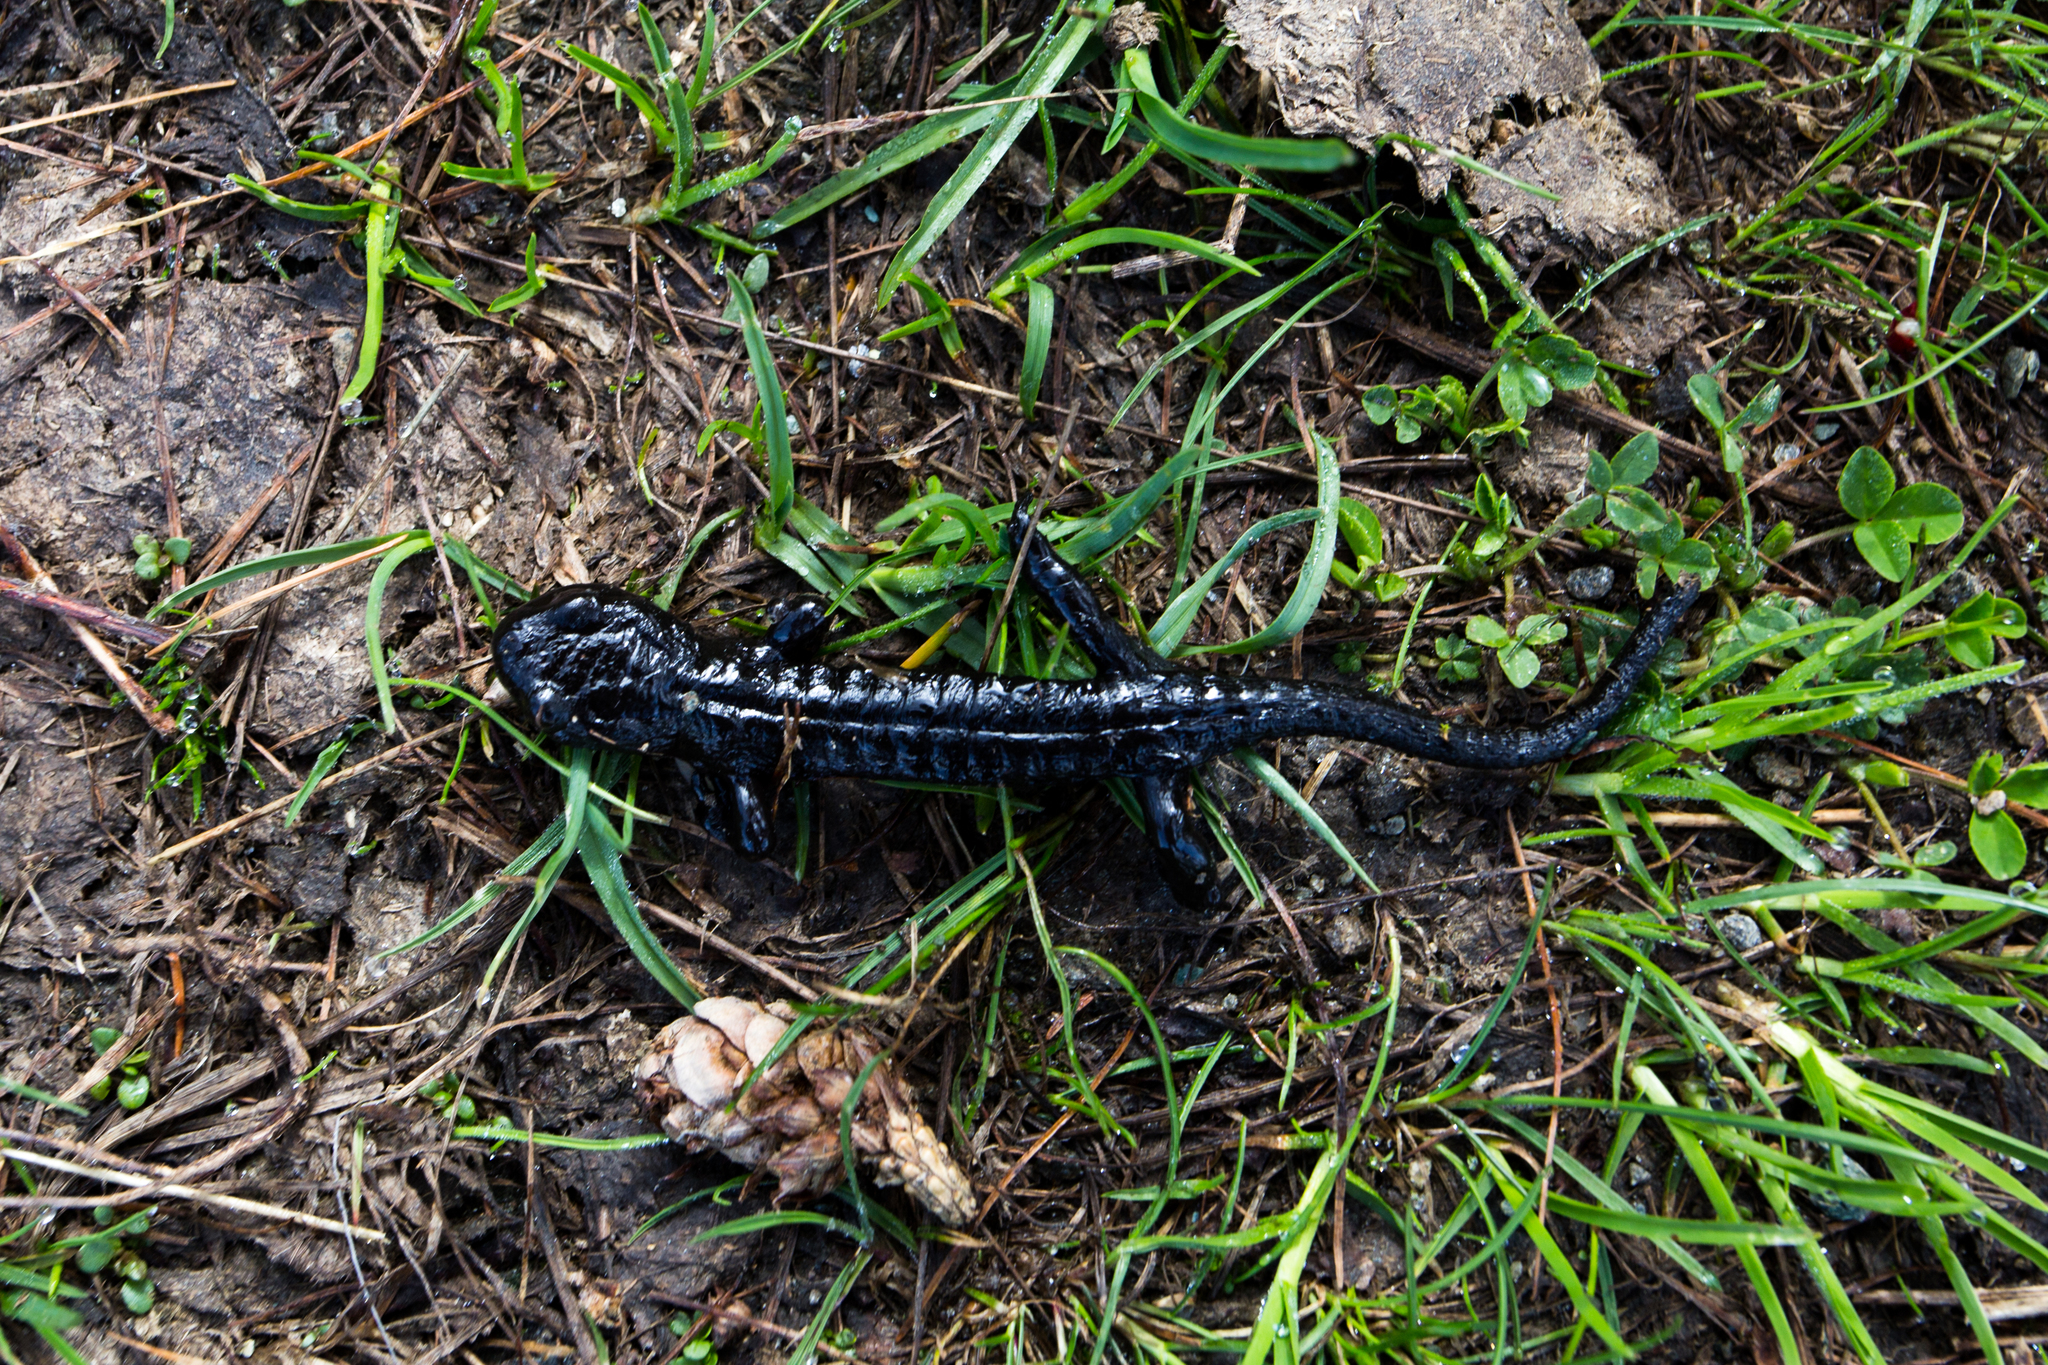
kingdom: Animalia
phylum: Chordata
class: Amphibia
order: Caudata
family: Salamandridae
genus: Salamandra
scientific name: Salamandra lanzai
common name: Lanzas fire salamander
